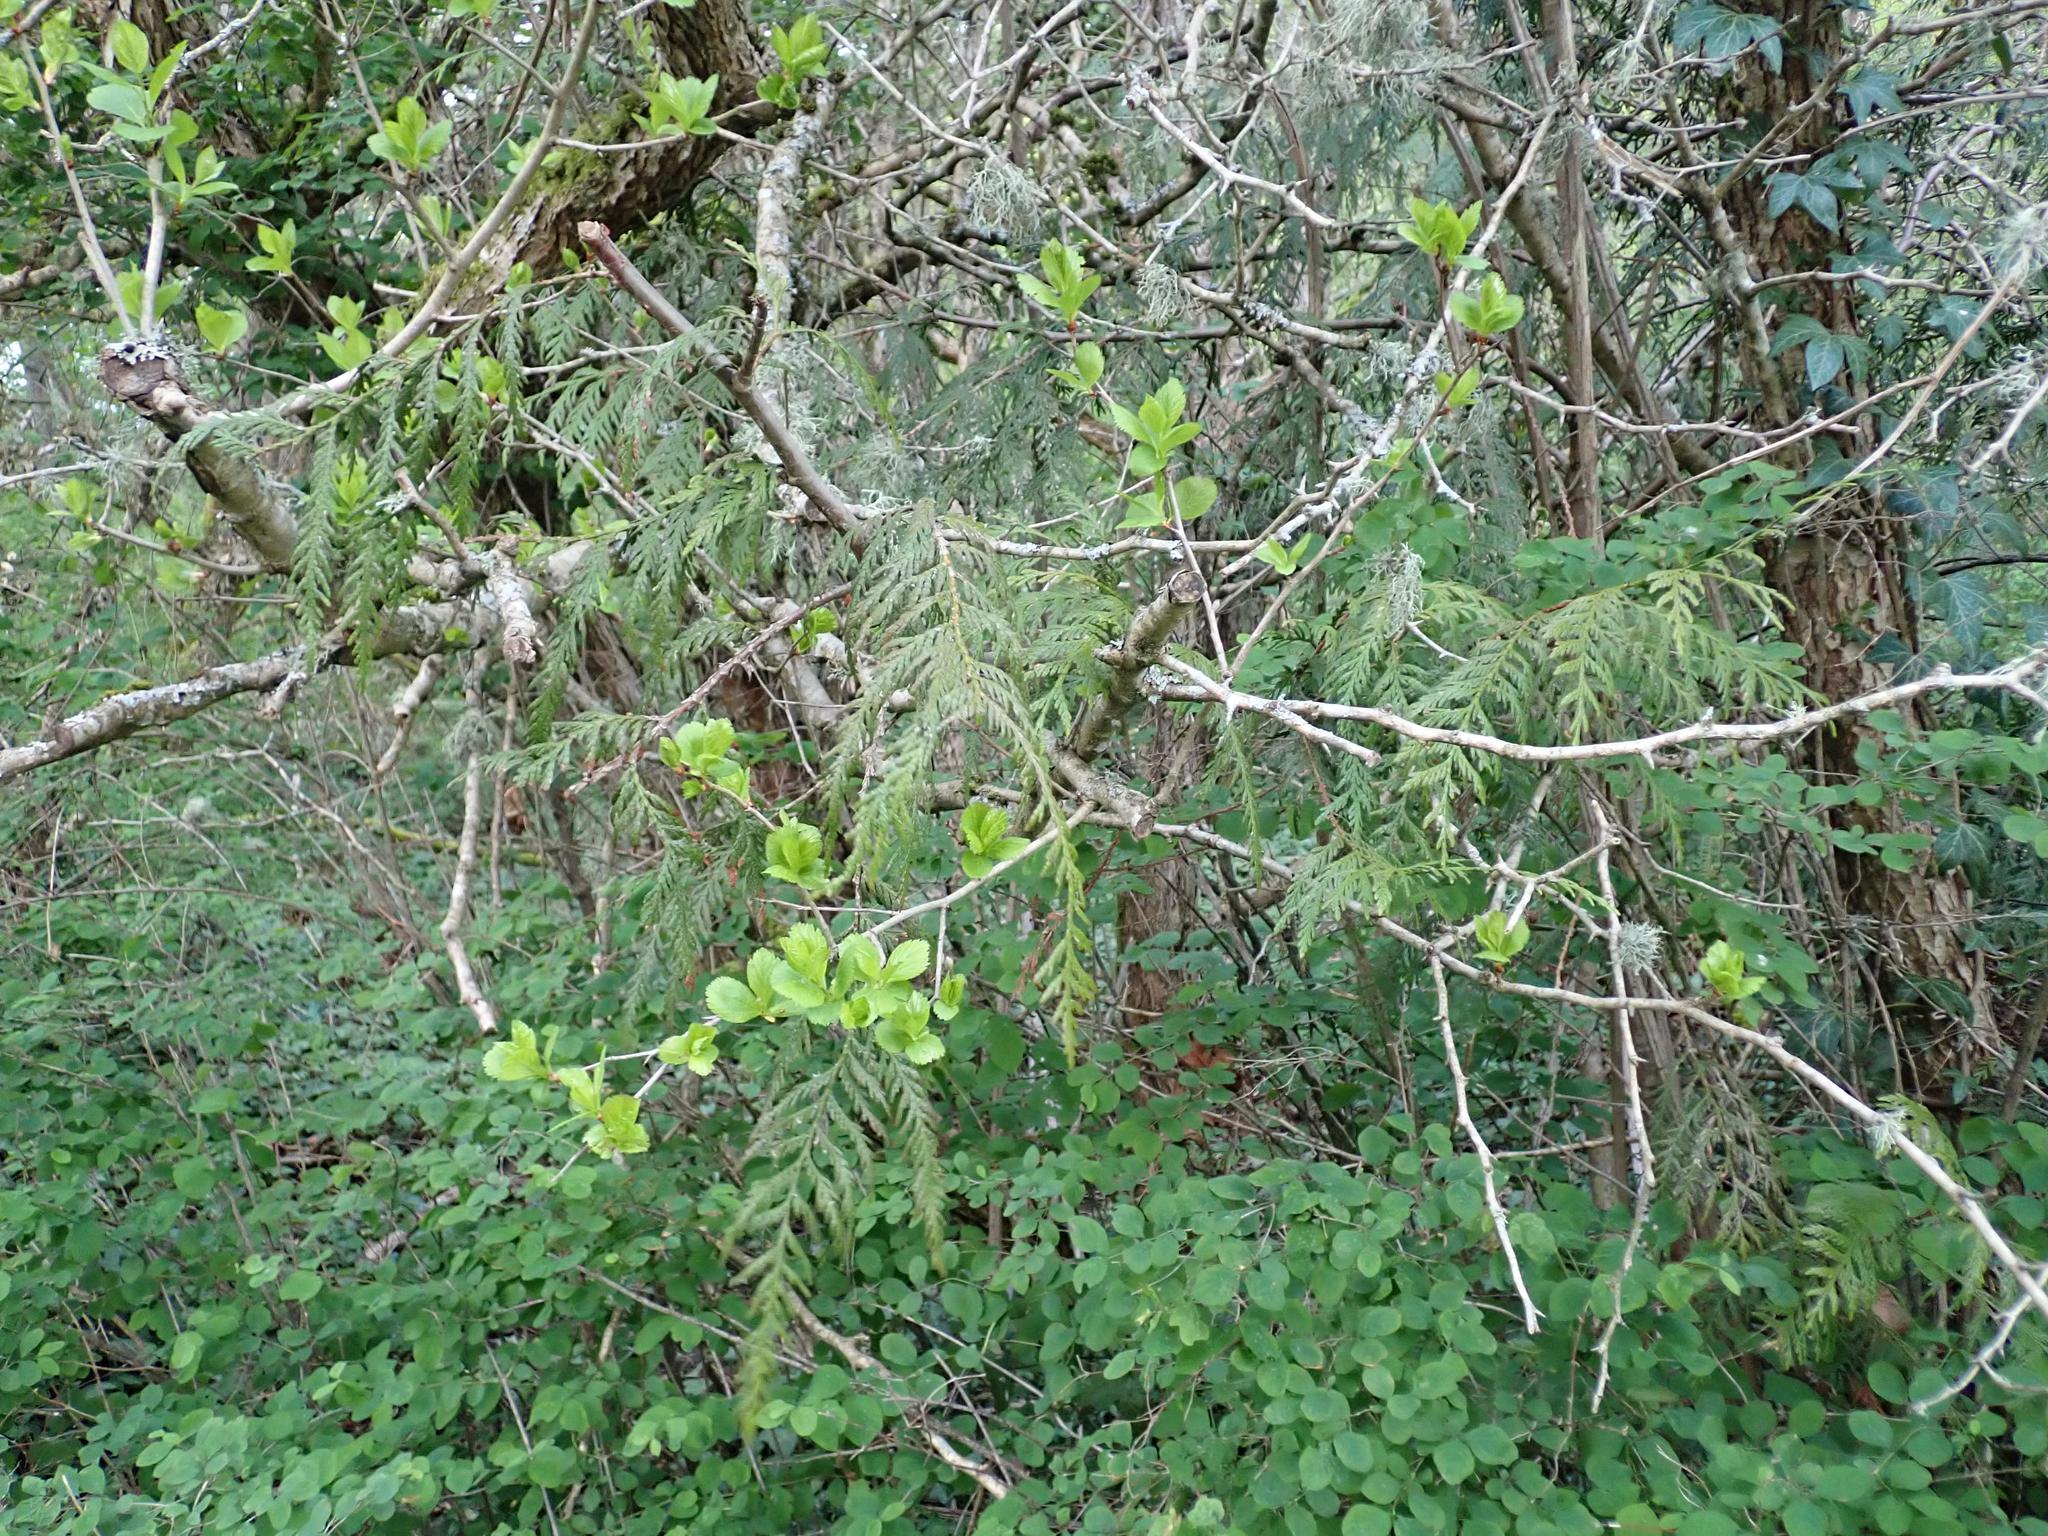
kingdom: Plantae
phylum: Tracheophyta
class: Pinopsida
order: Pinales
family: Cupressaceae
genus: Thuja
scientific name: Thuja plicata
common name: Western red-cedar
